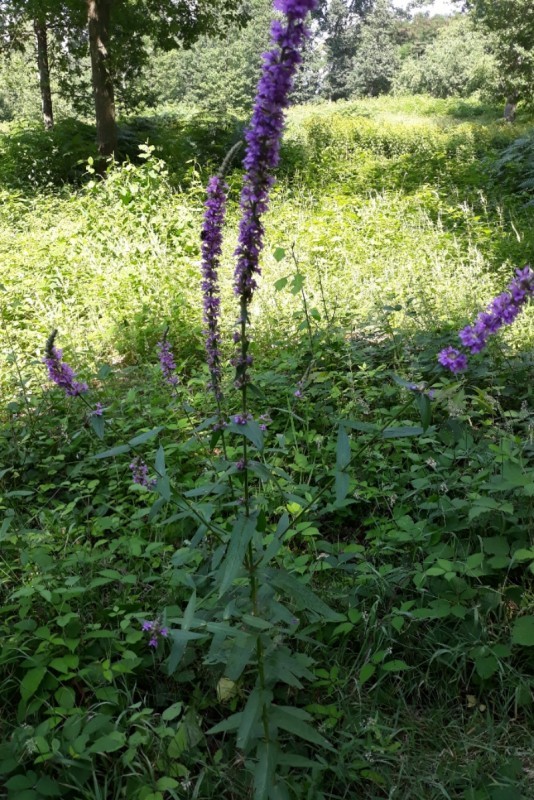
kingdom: Plantae
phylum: Tracheophyta
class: Magnoliopsida
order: Myrtales
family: Lythraceae
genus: Lythrum
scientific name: Lythrum salicaria
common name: Purple loosestrife
